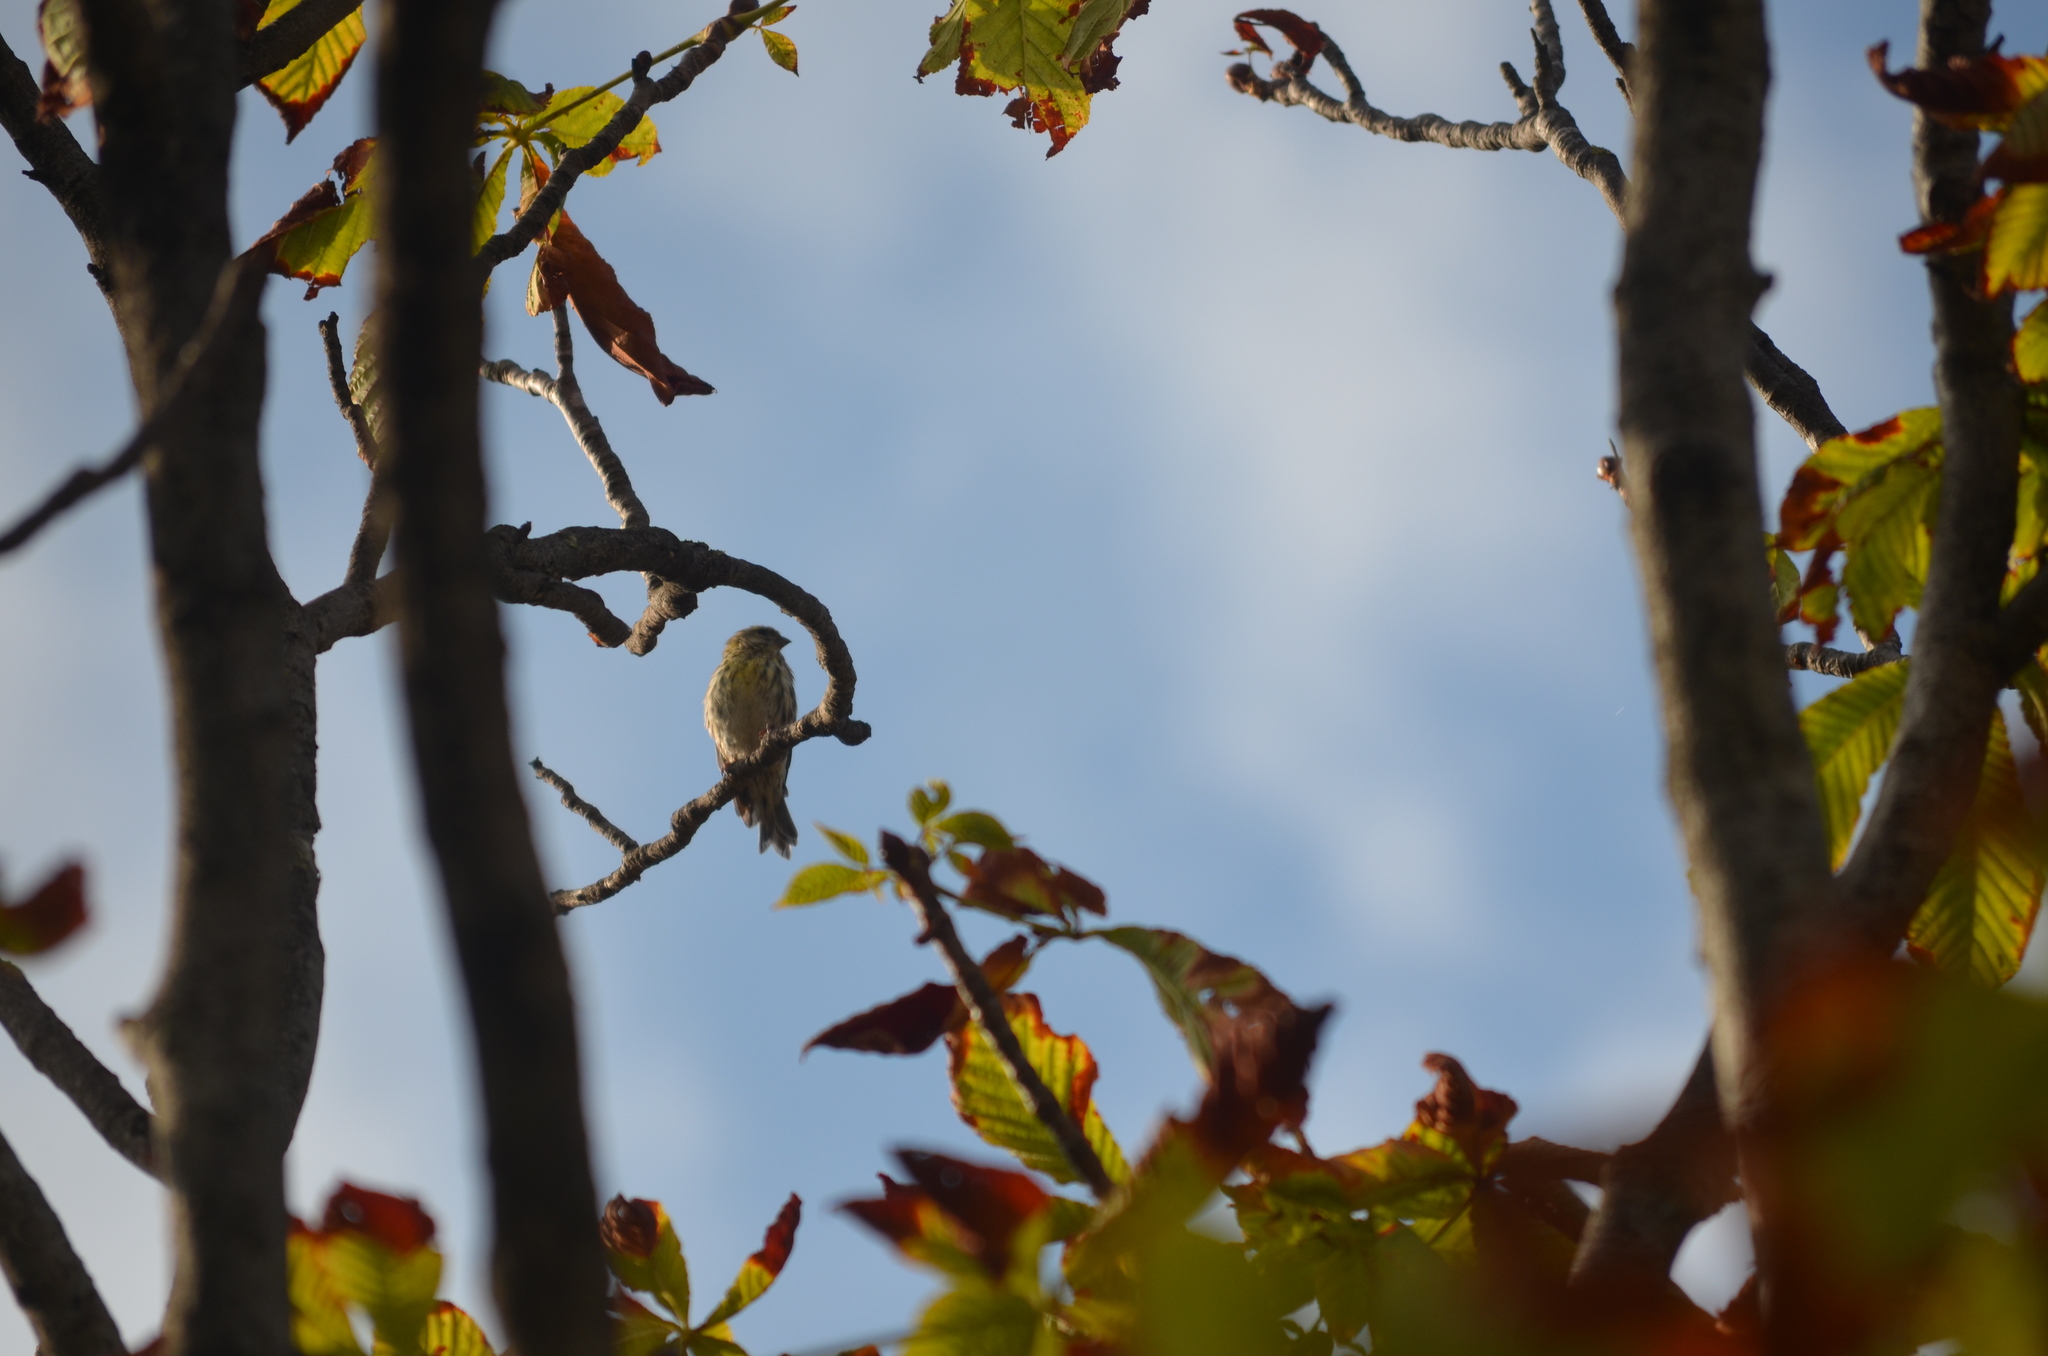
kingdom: Animalia
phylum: Chordata
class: Aves
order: Passeriformes
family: Fringillidae
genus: Serinus
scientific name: Serinus serinus
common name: European serin
